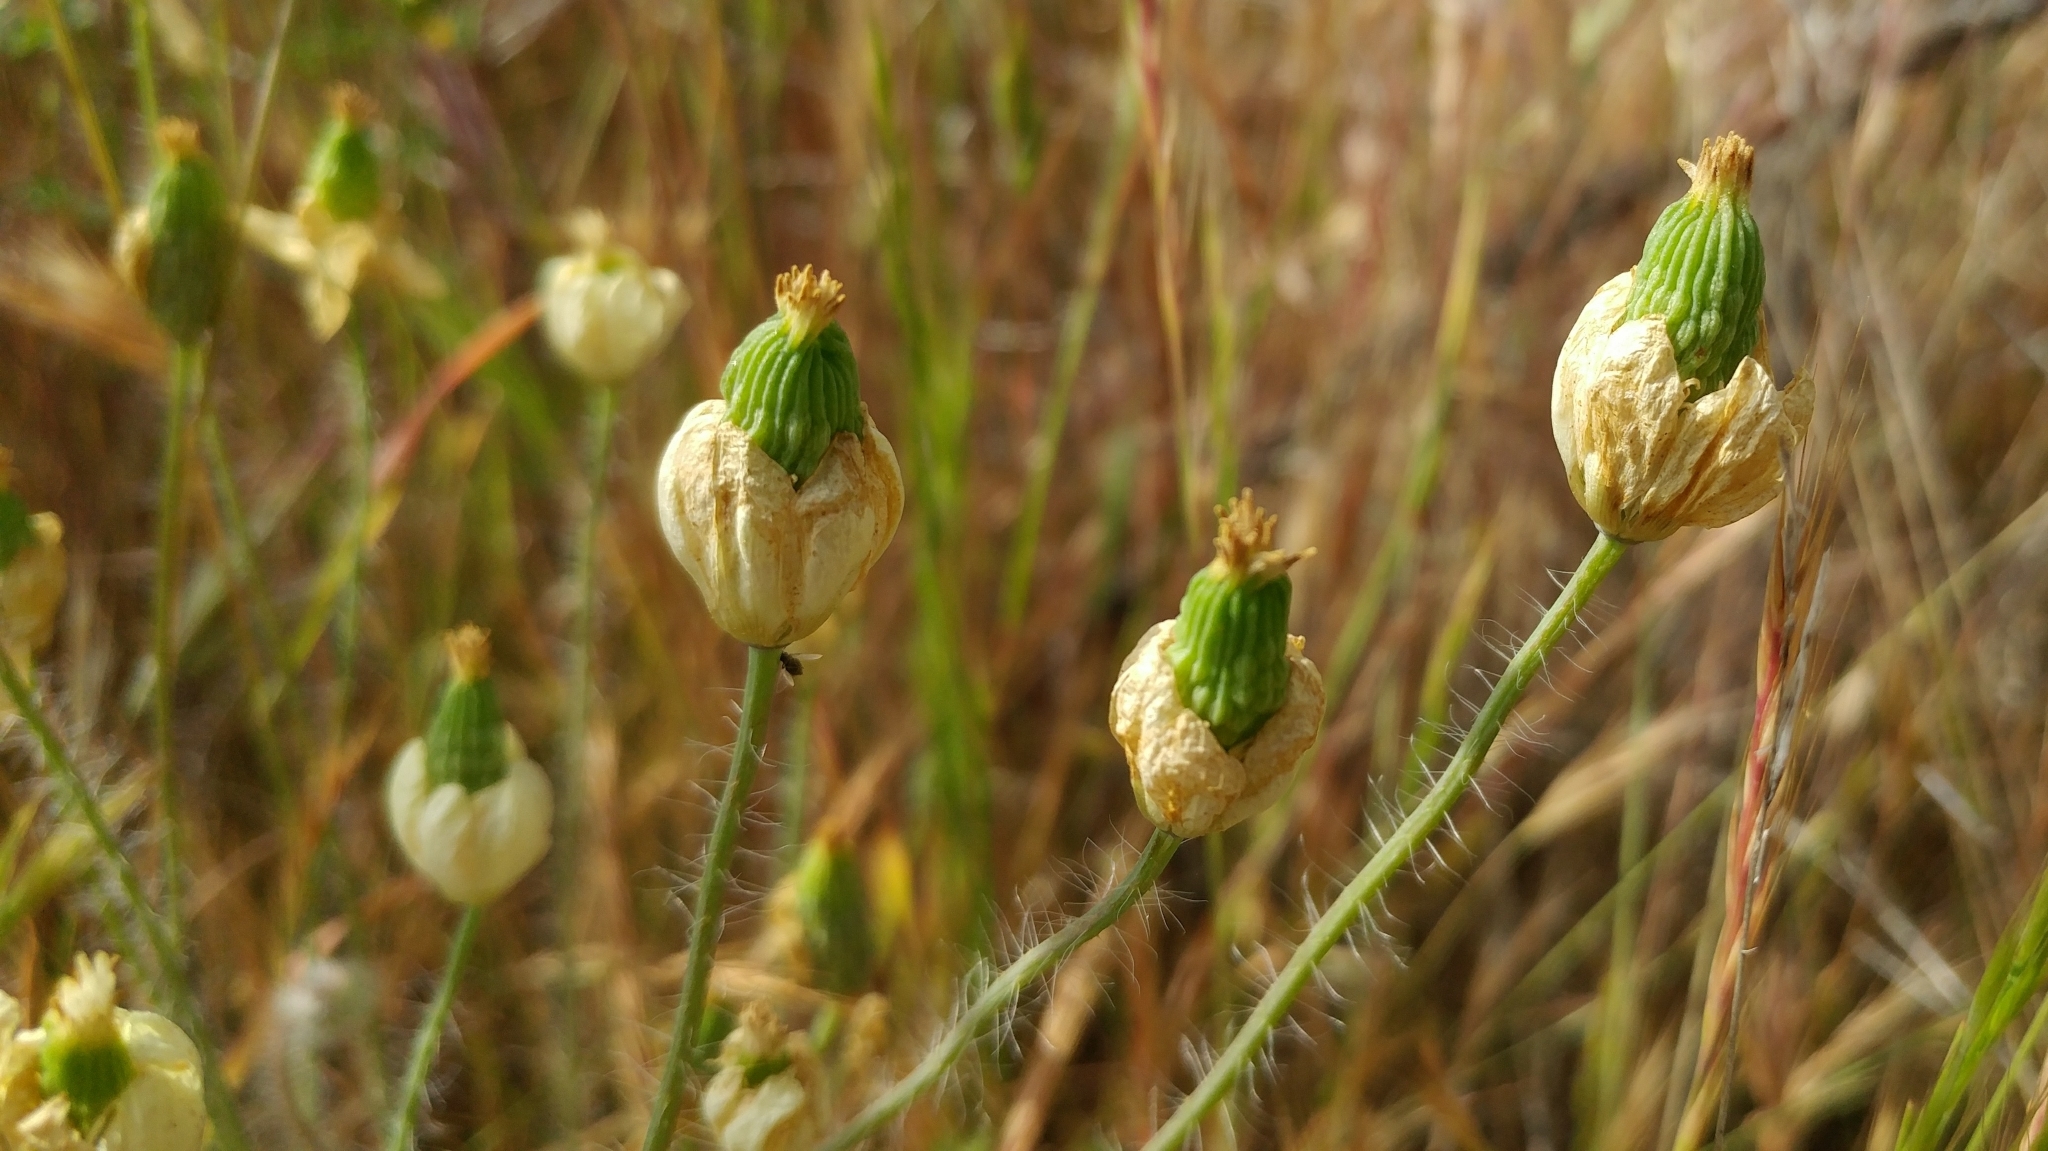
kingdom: Plantae
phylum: Tracheophyta
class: Magnoliopsida
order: Ranunculales
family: Papaveraceae
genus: Platystemon
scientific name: Platystemon californicus
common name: Cream-cups
